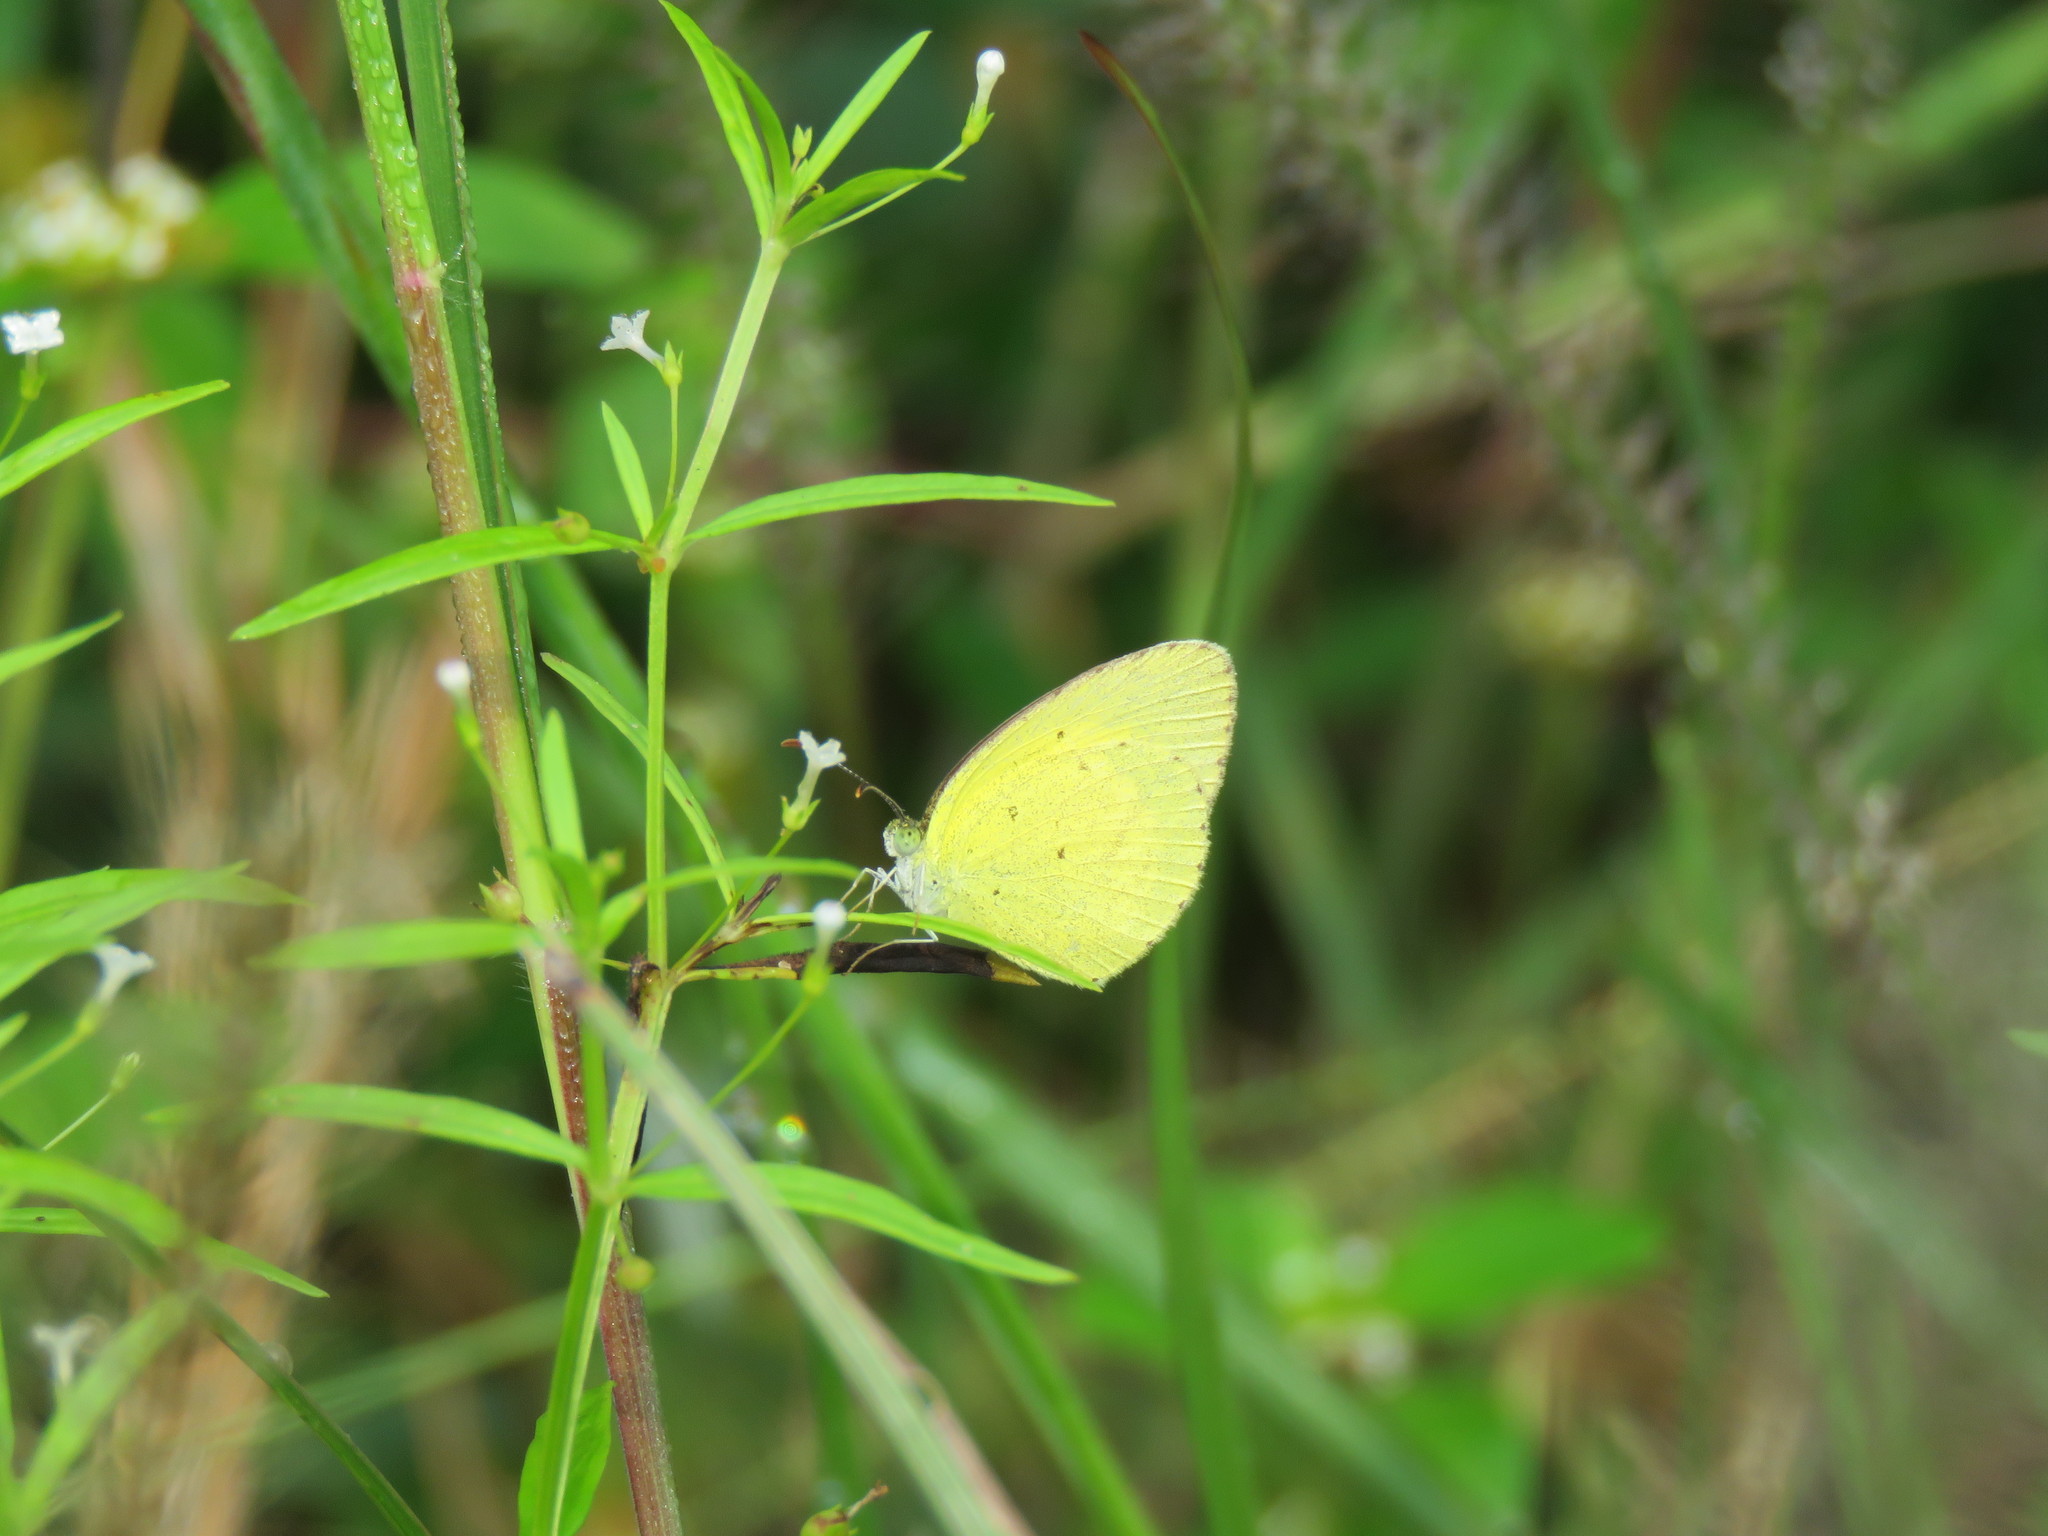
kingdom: Animalia
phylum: Arthropoda
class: Insecta
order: Lepidoptera
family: Pieridae
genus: Eurema
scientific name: Eurema brigitta
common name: Small grass yellow
